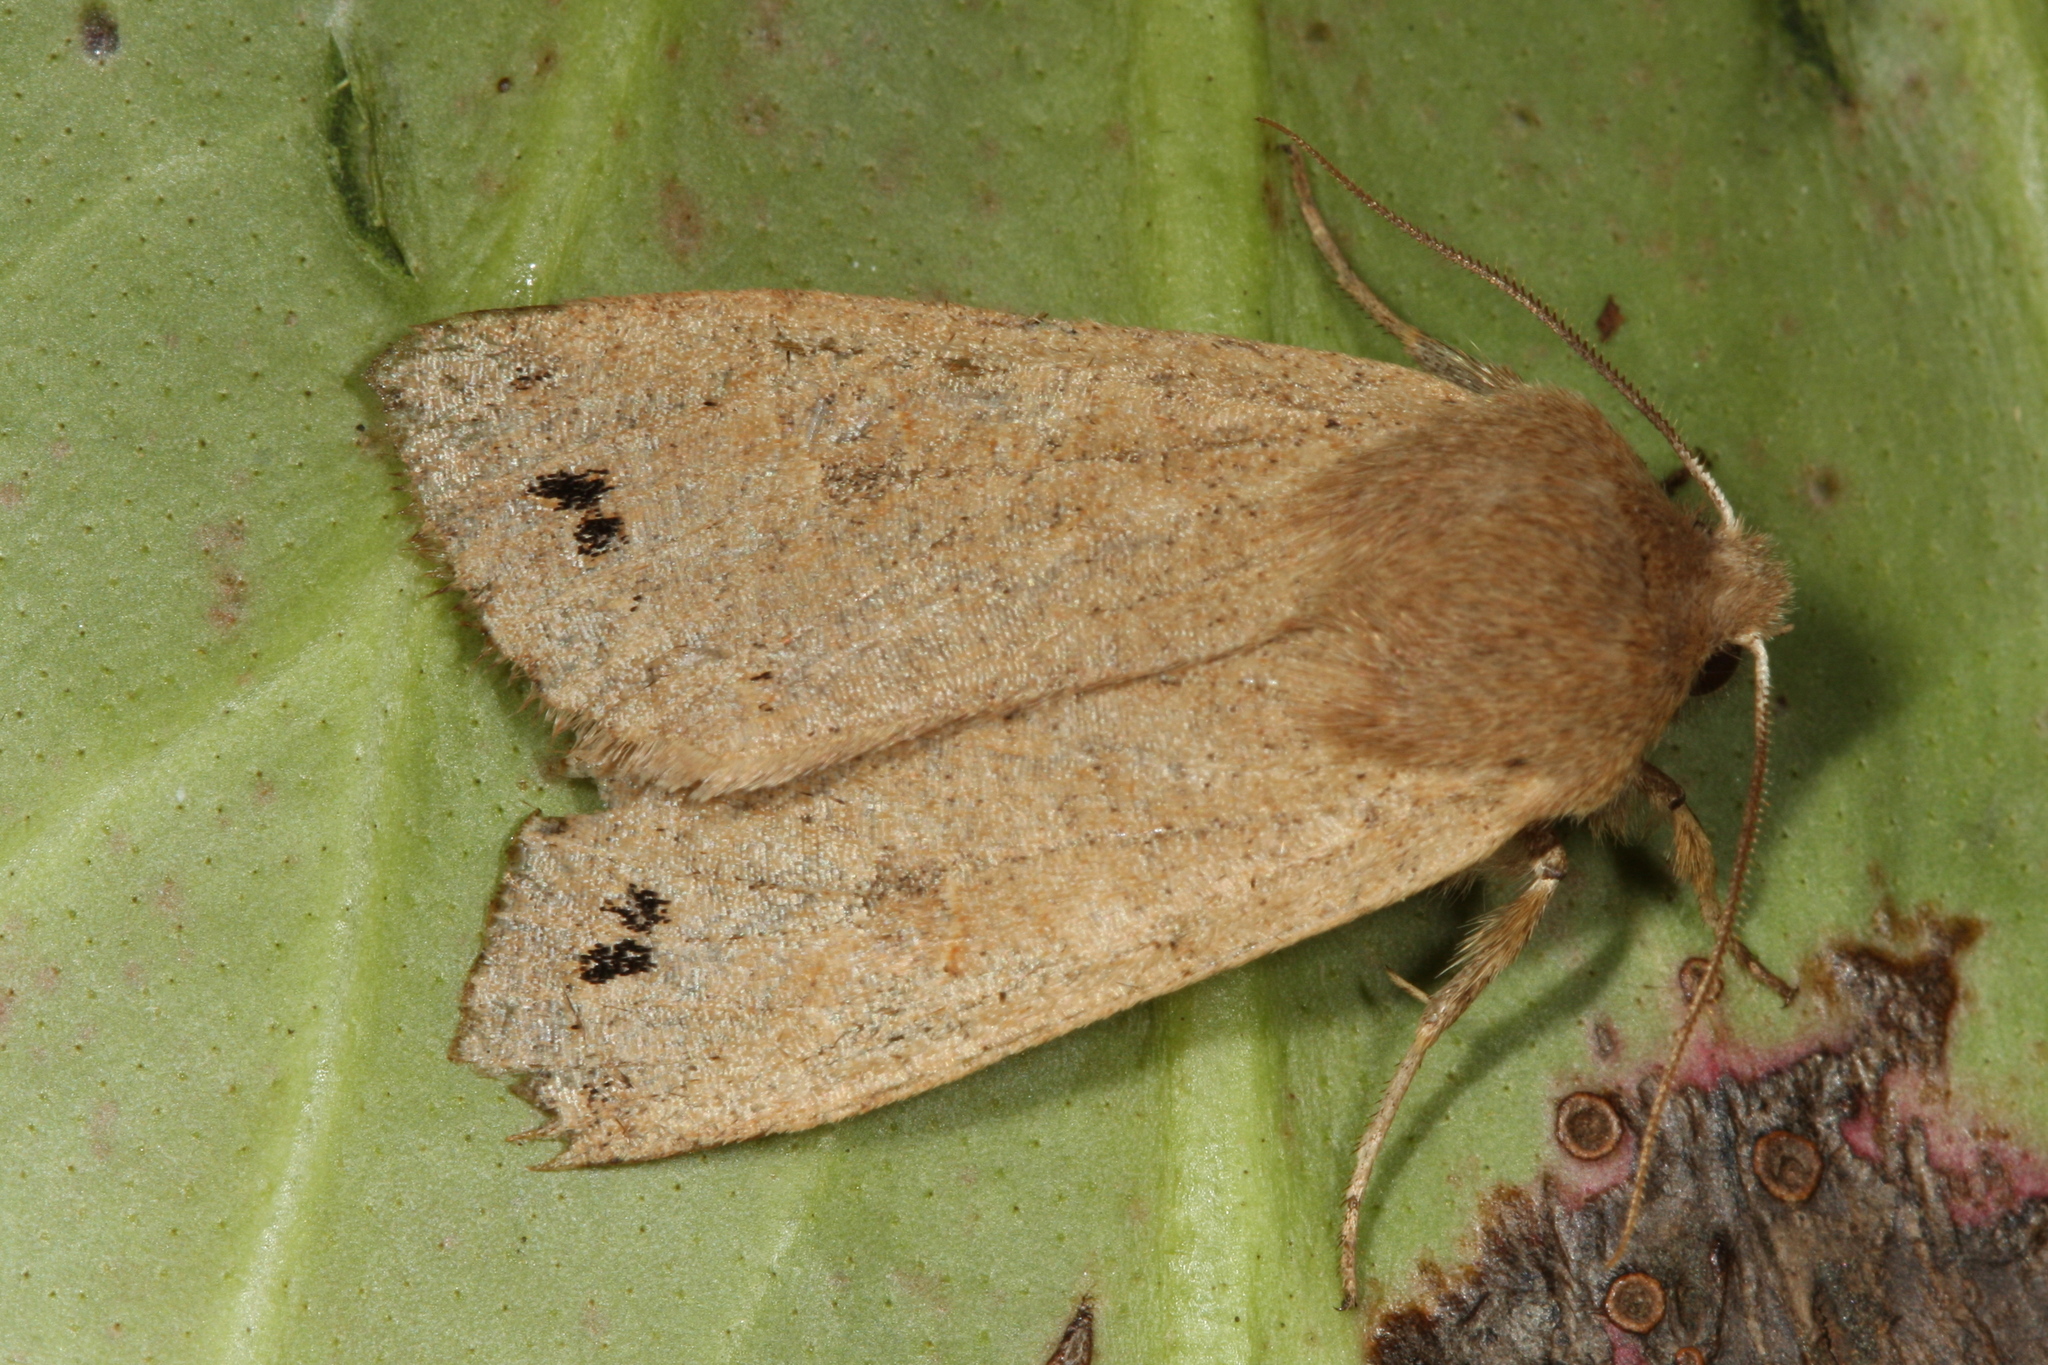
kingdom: Animalia
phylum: Arthropoda
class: Insecta
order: Lepidoptera
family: Noctuidae
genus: Anorthoa
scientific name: Anorthoa munda
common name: Twin-spotted quaker
